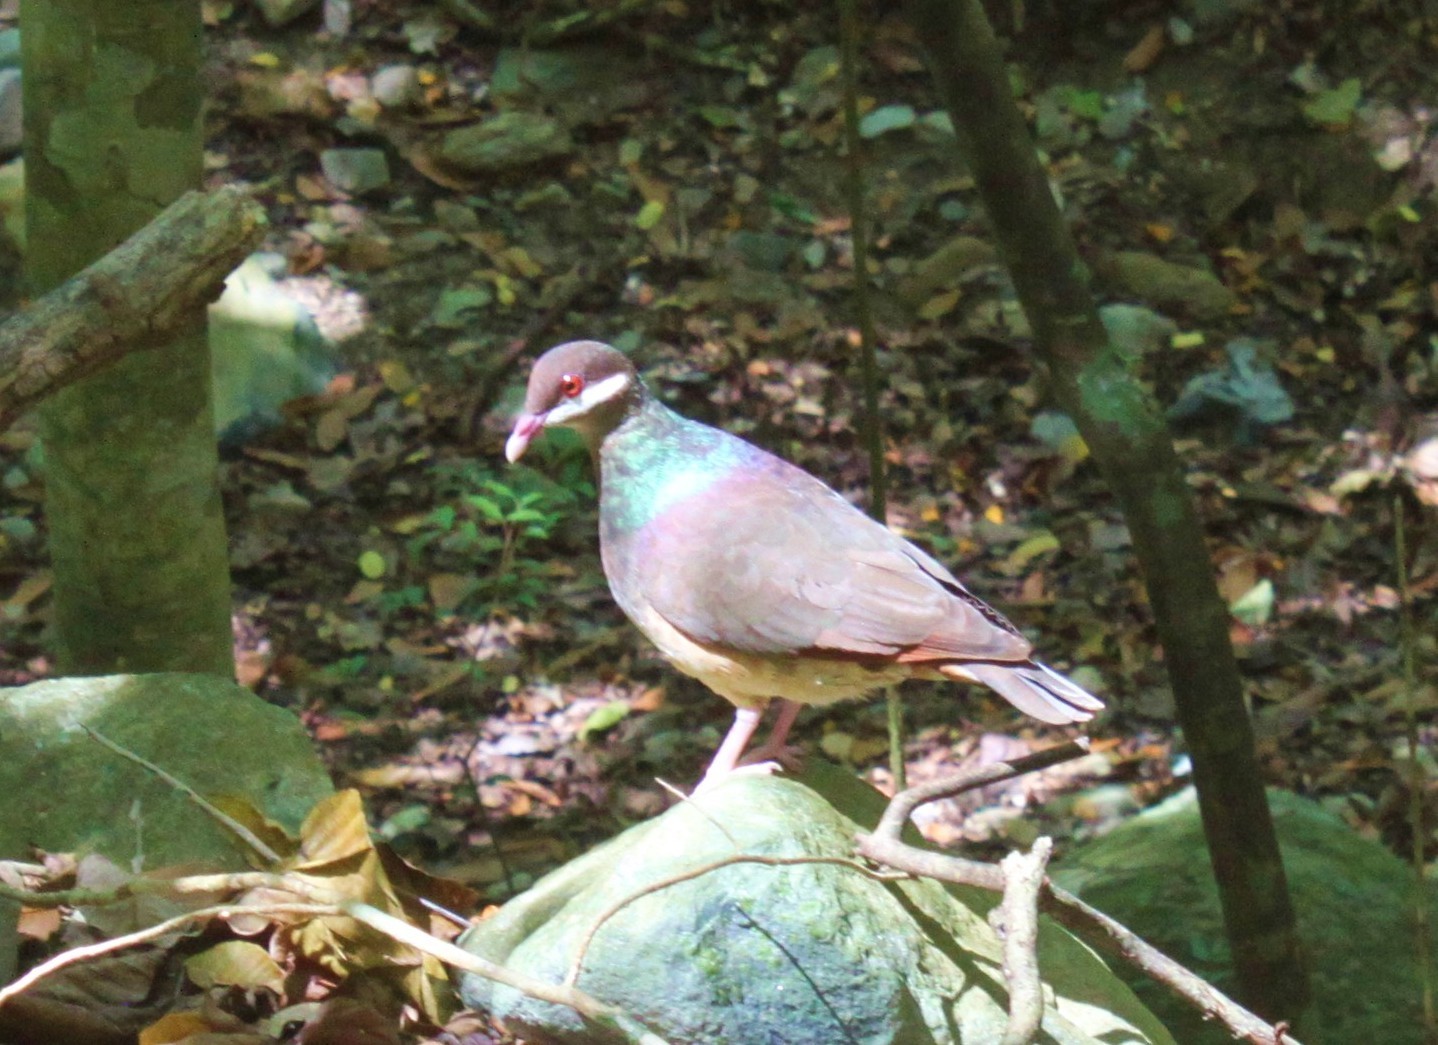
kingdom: Animalia
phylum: Chordata
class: Aves
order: Columbiformes
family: Columbidae
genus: Geotrygon
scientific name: Geotrygon mystacea
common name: Bridled quail-dove
